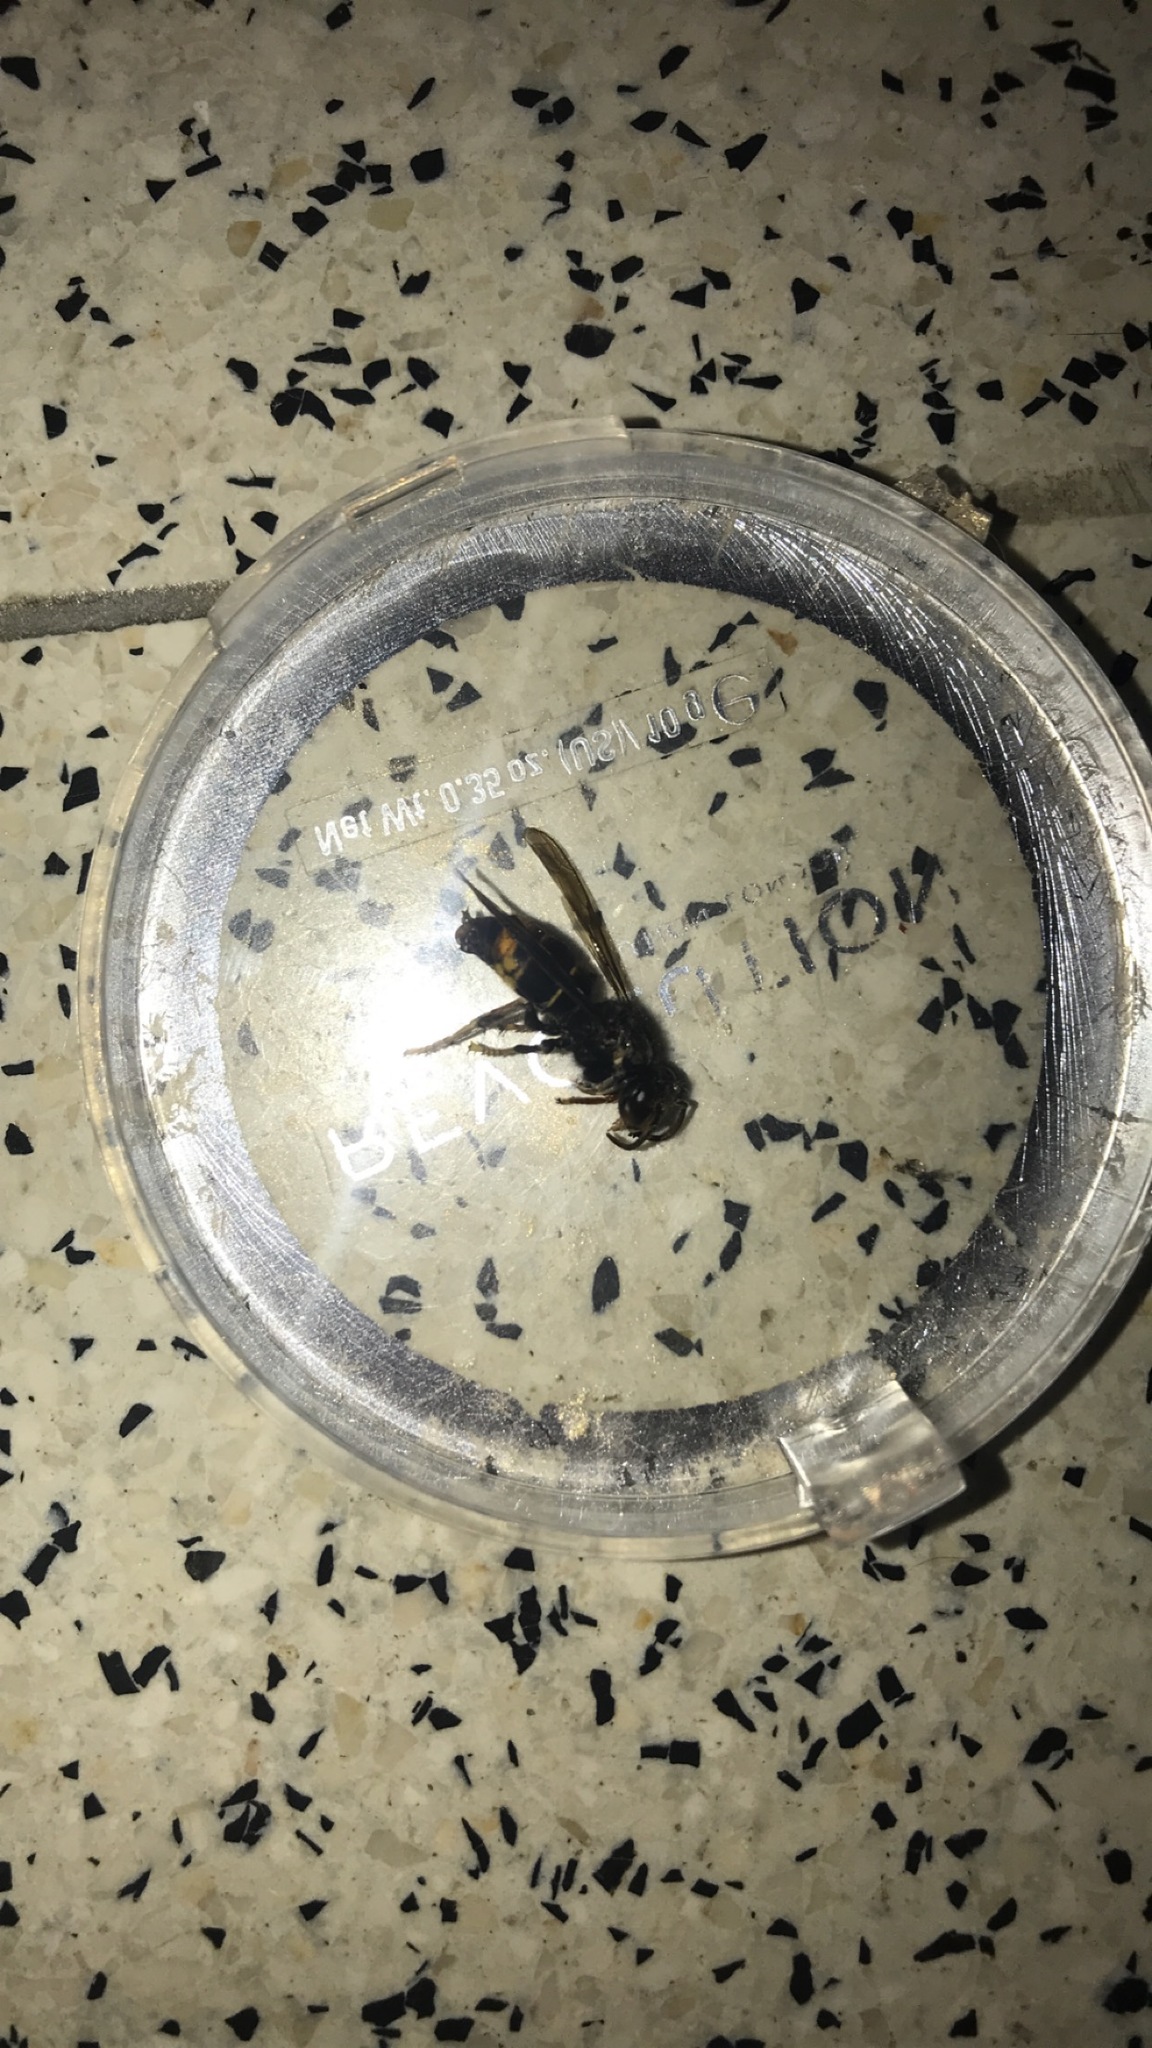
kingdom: Animalia
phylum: Arthropoda
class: Insecta
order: Hymenoptera
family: Vespidae
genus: Vespa
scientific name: Vespa velutina
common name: Asian hornet
